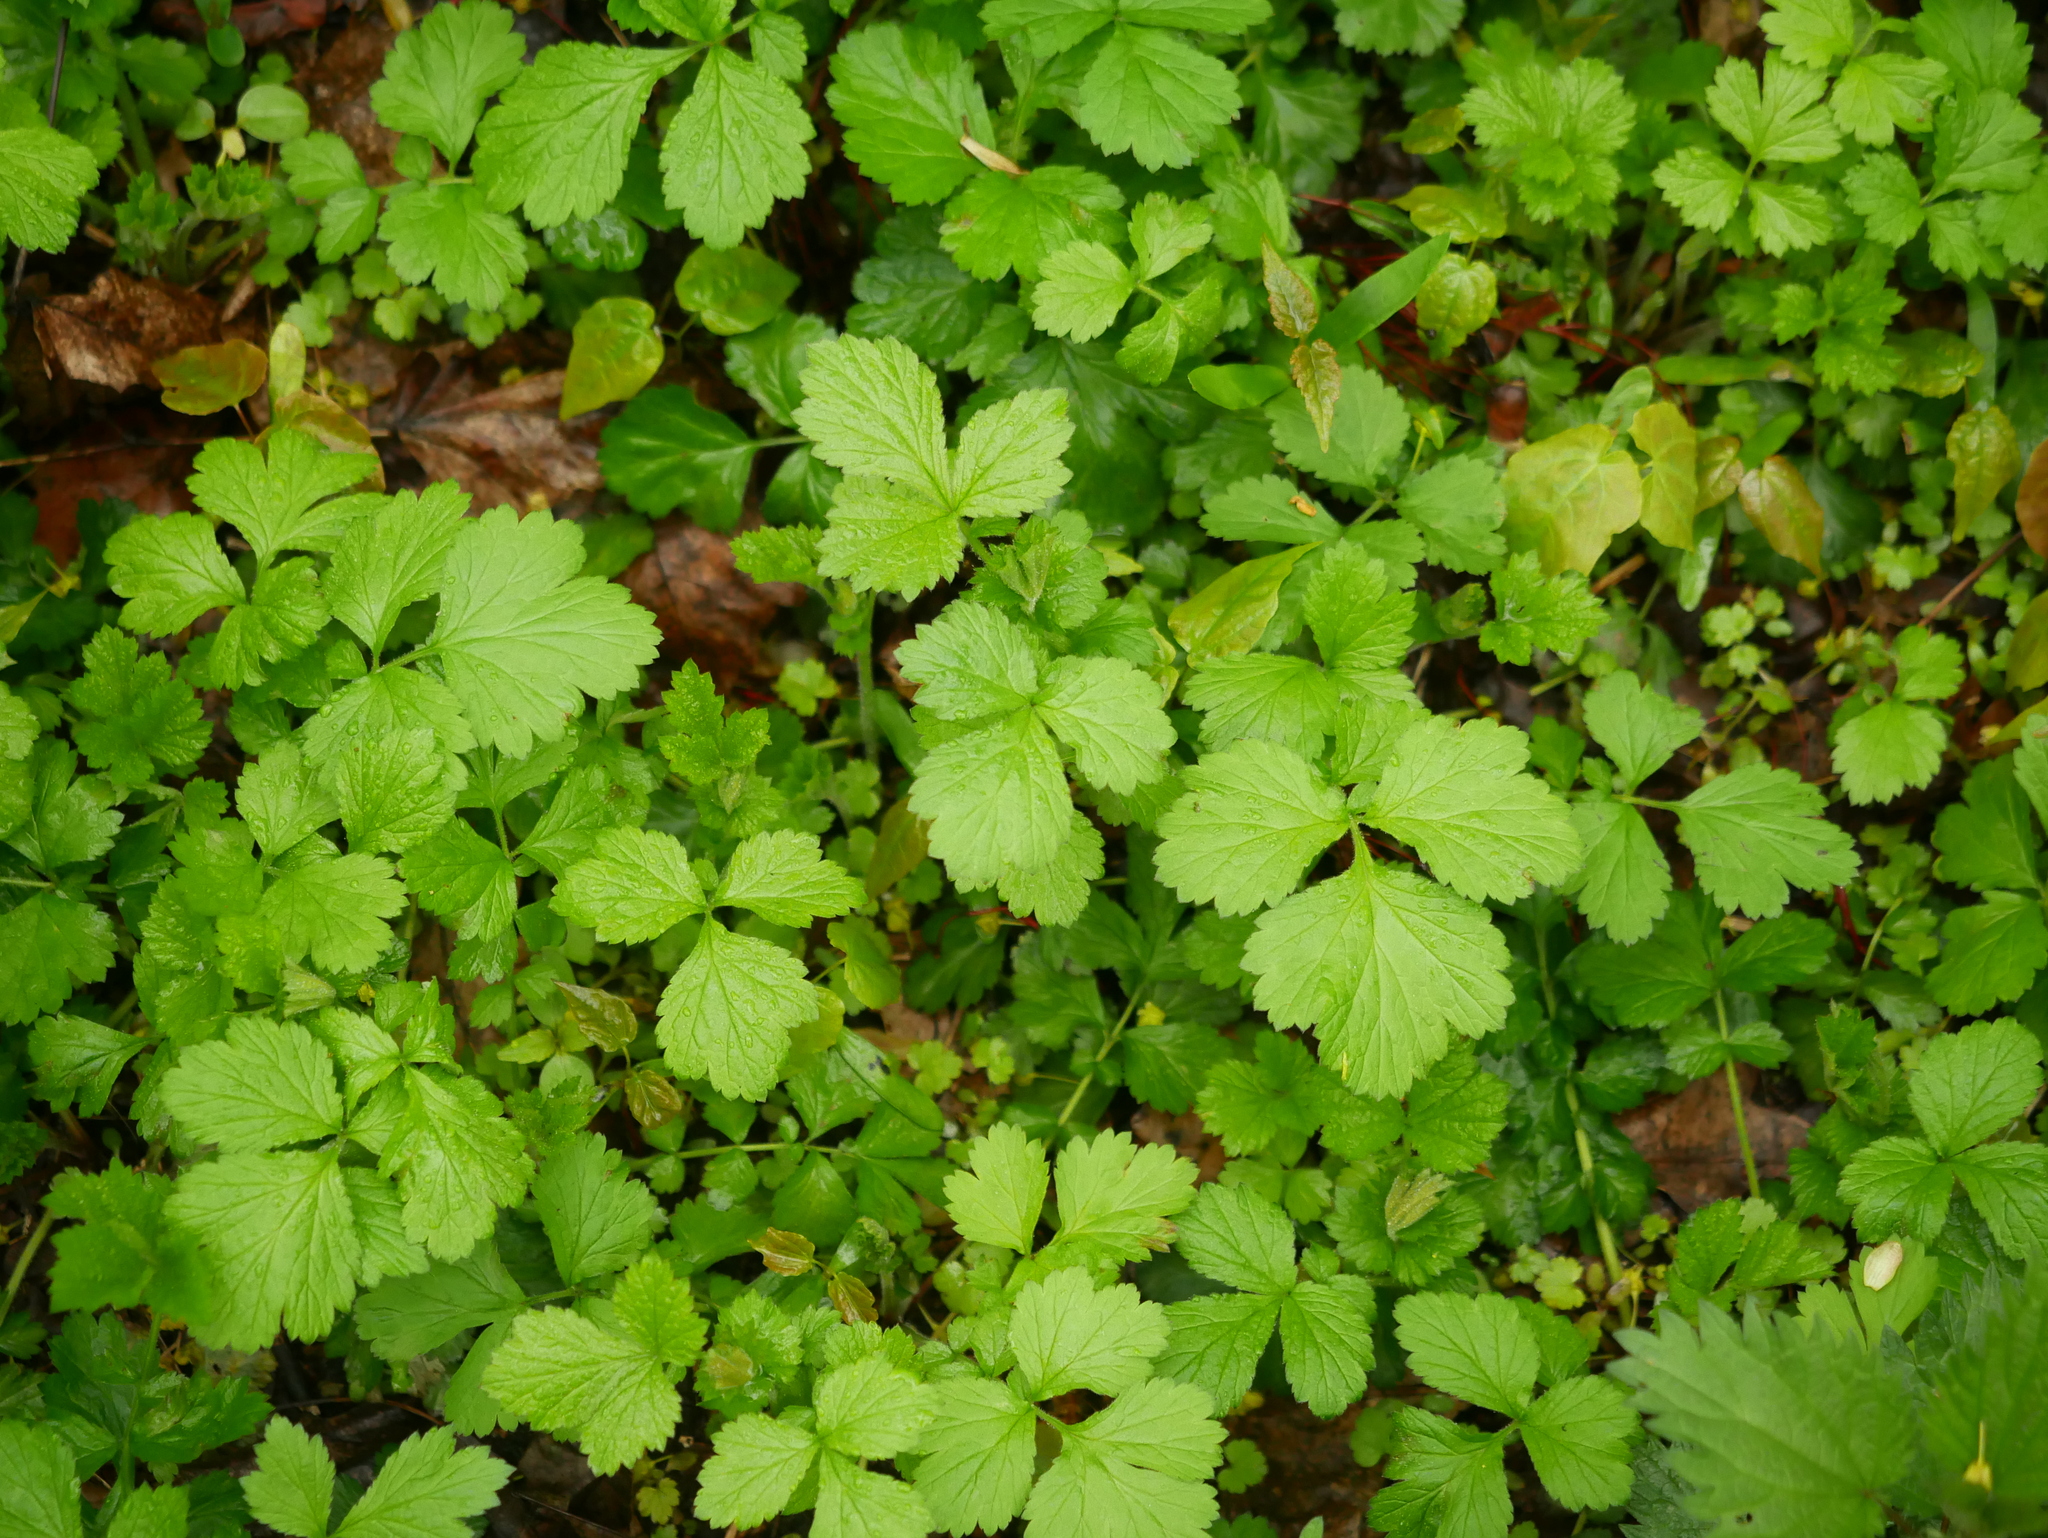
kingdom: Plantae
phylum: Tracheophyta
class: Magnoliopsida
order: Rosales
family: Rosaceae
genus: Geum
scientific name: Geum urbanum
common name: Wood avens
